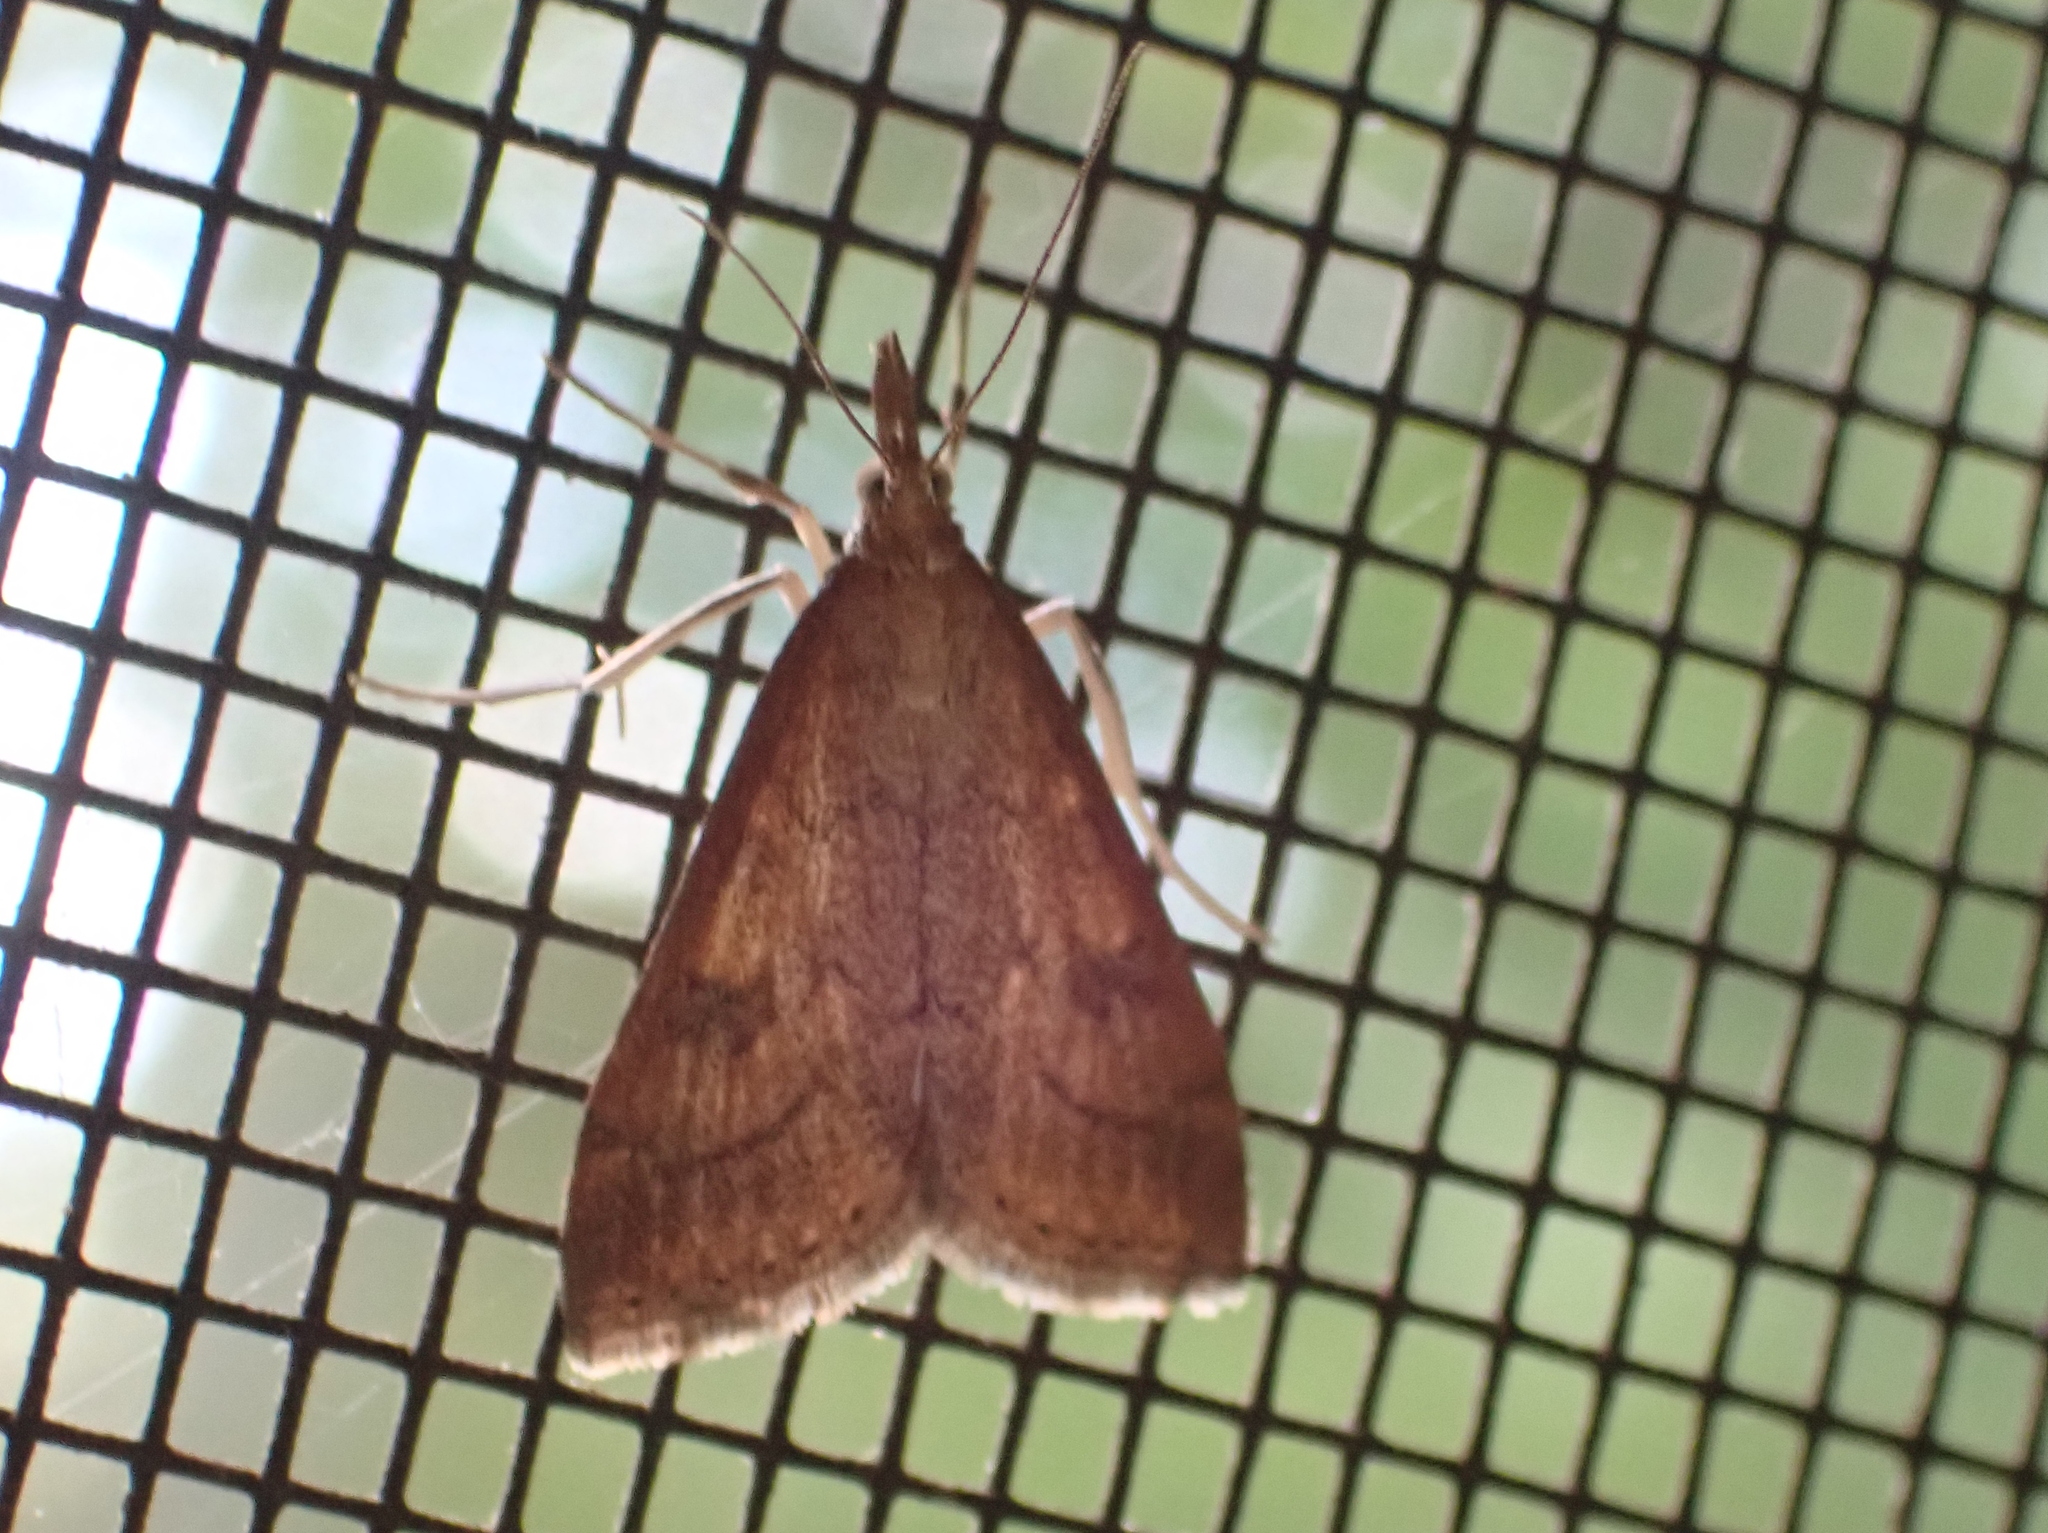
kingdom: Animalia
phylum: Arthropoda
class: Insecta
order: Lepidoptera
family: Crambidae
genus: Udea
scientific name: Udea rubigalis
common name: Celery leaftier moth
